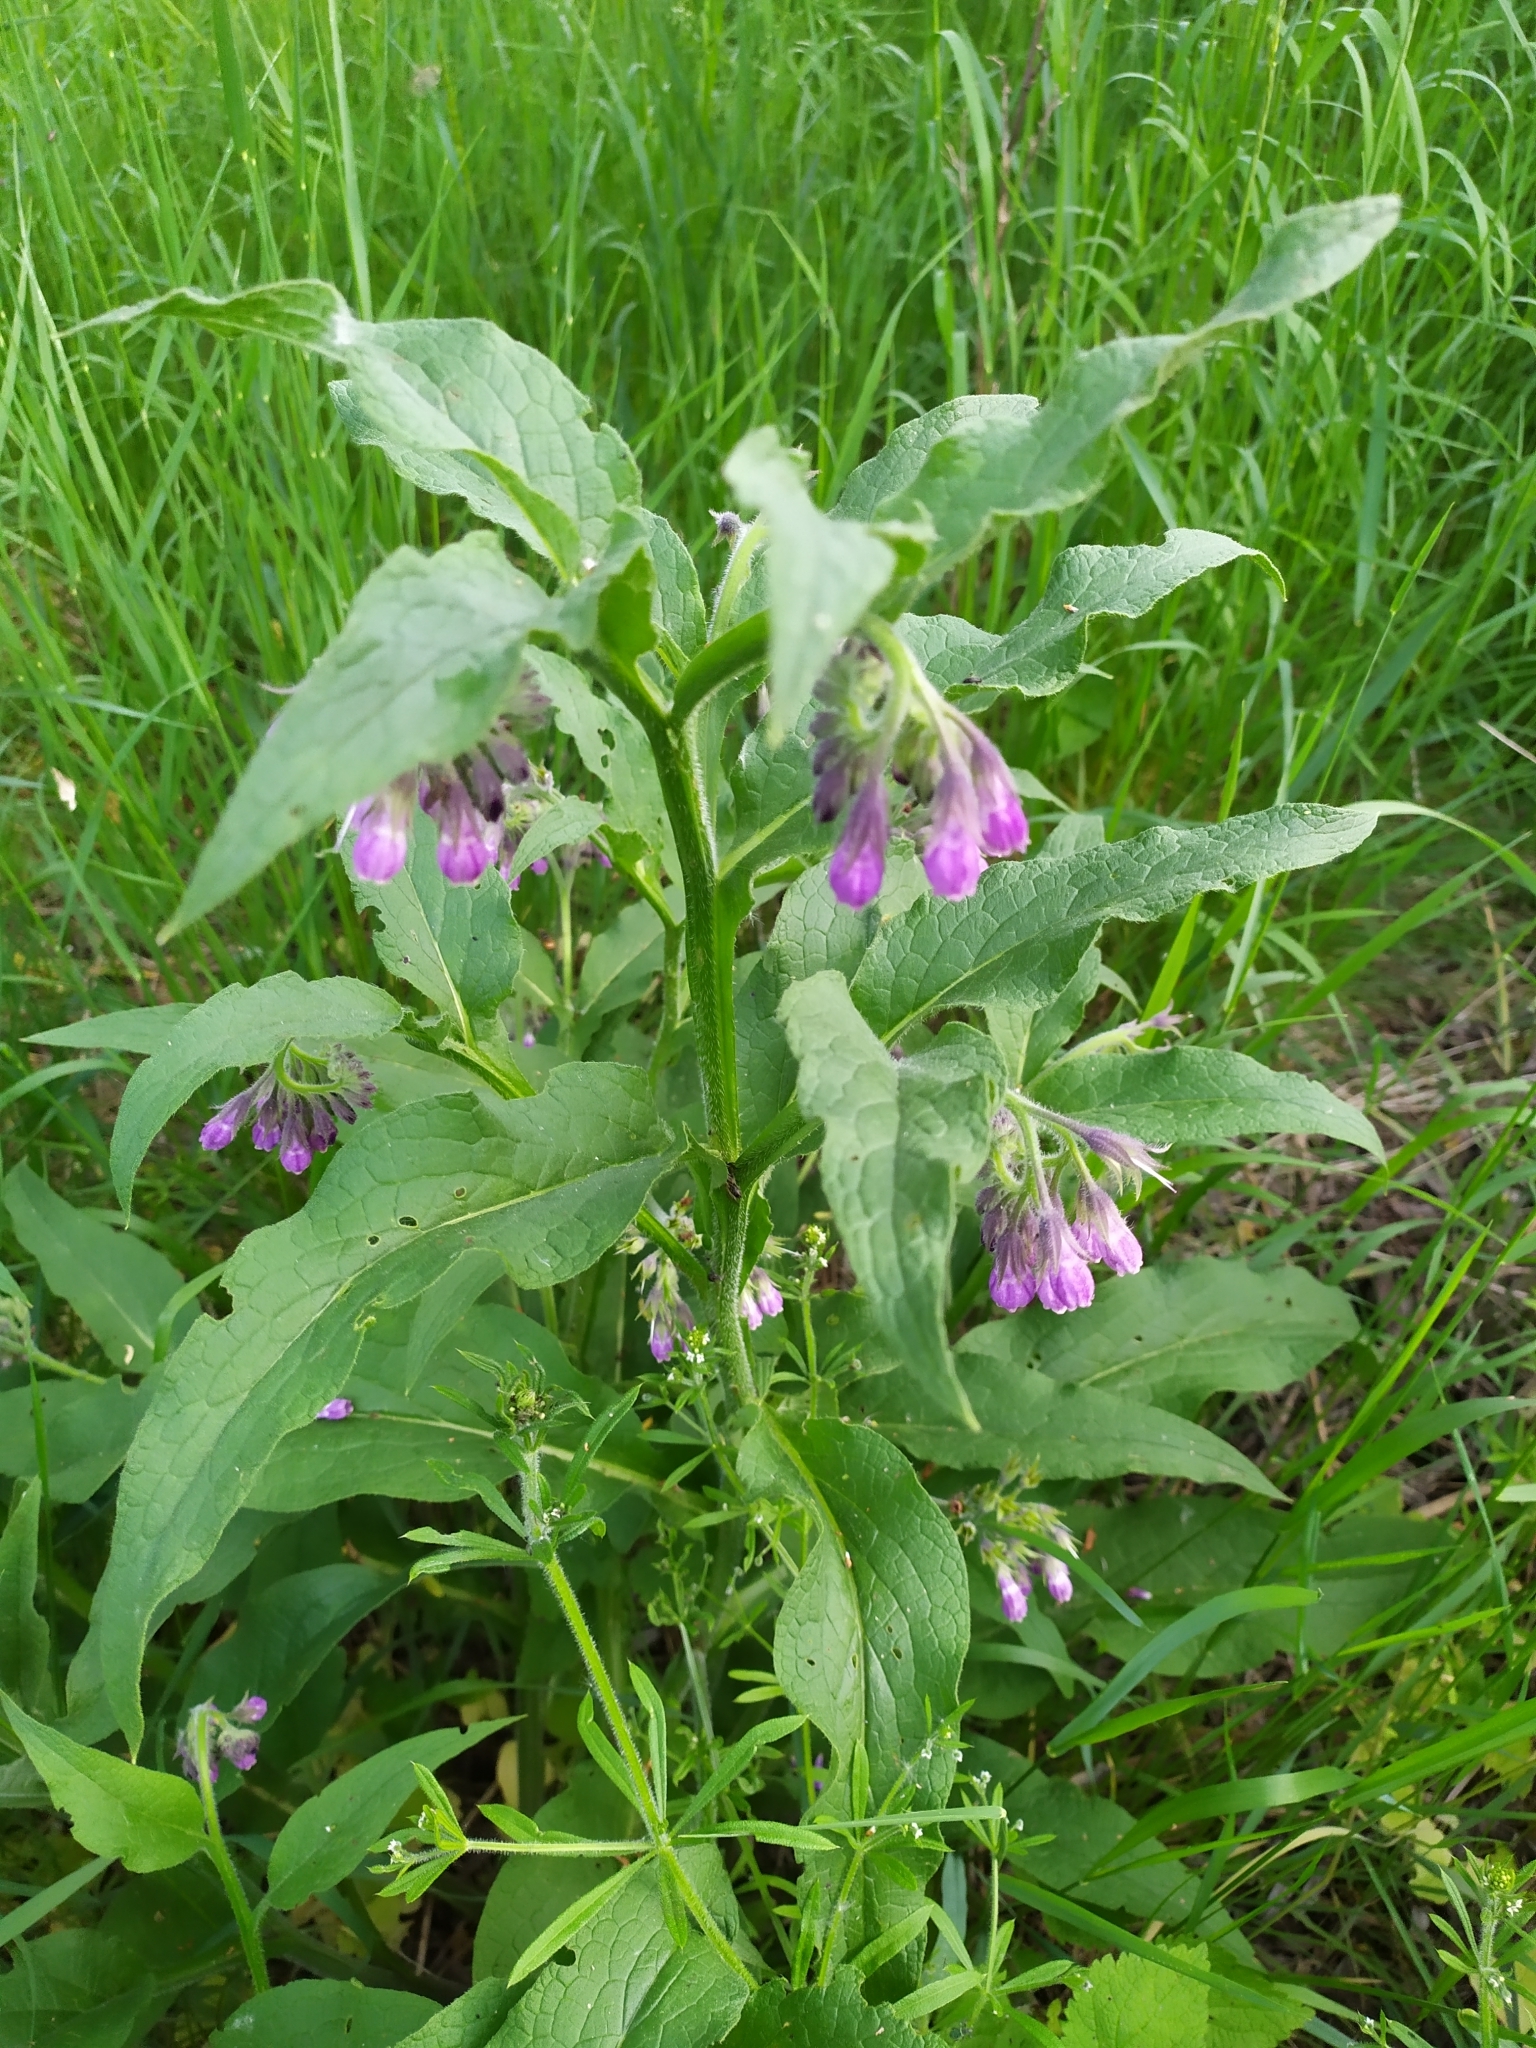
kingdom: Plantae
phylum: Tracheophyta
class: Magnoliopsida
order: Boraginales
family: Boraginaceae
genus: Symphytum
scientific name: Symphytum officinale
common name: Common comfrey
